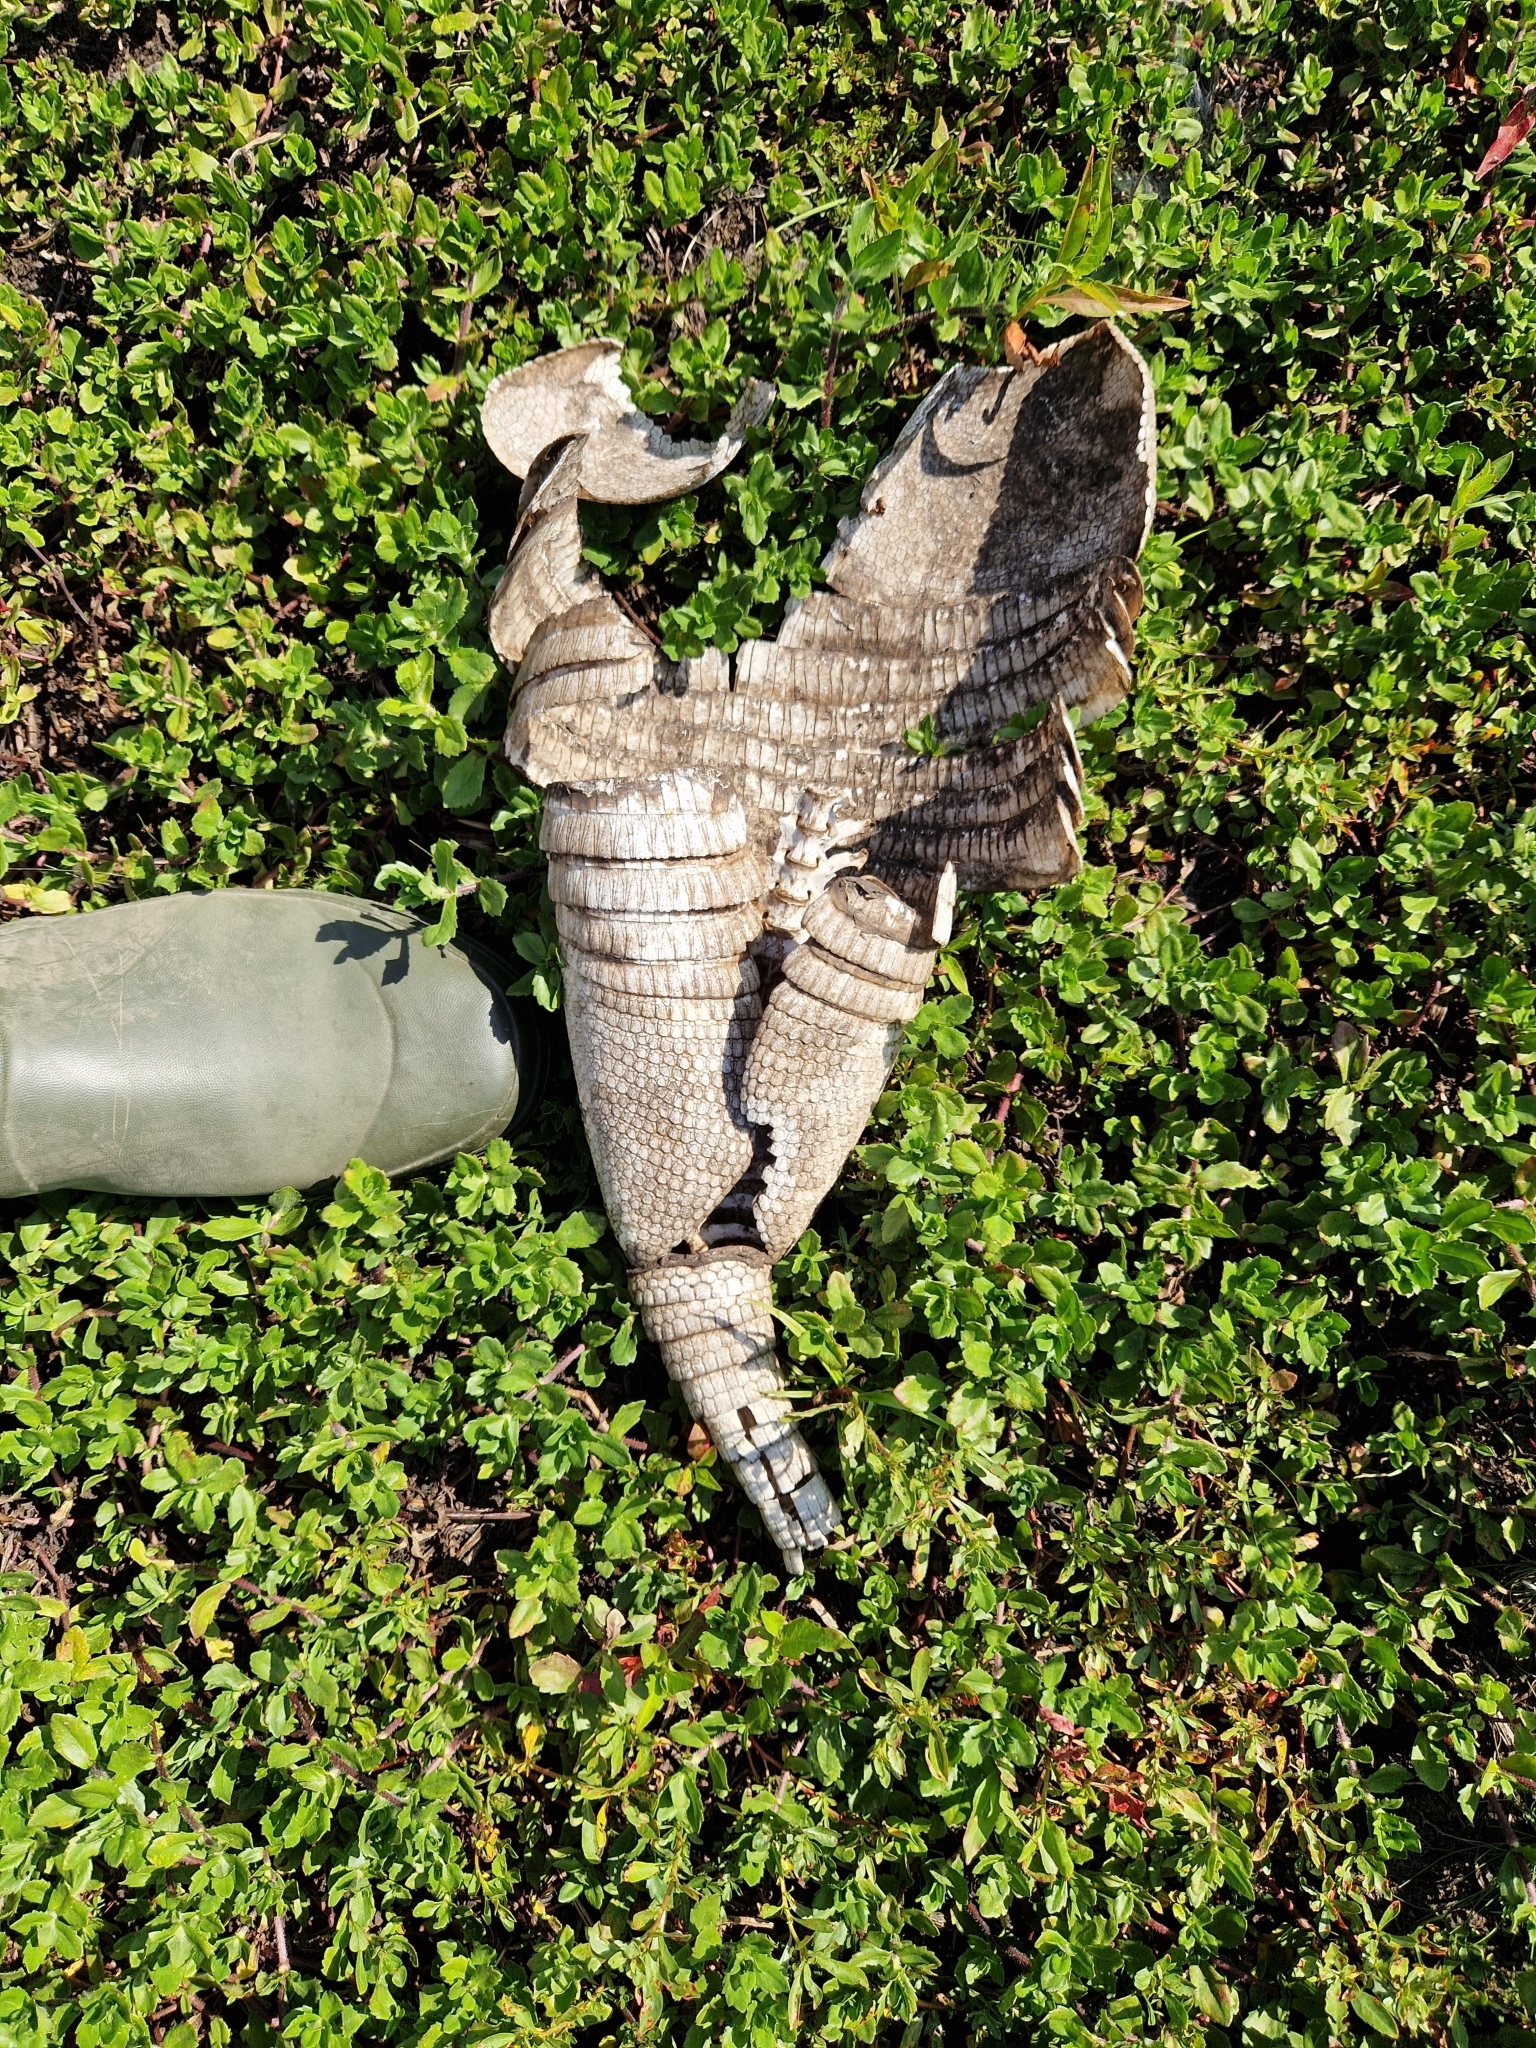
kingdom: Animalia
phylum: Chordata
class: Mammalia
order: Cingulata
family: Dasypodidae
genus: Dasypus
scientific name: Dasypus novemcinctus
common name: Nine-banded armadillo
